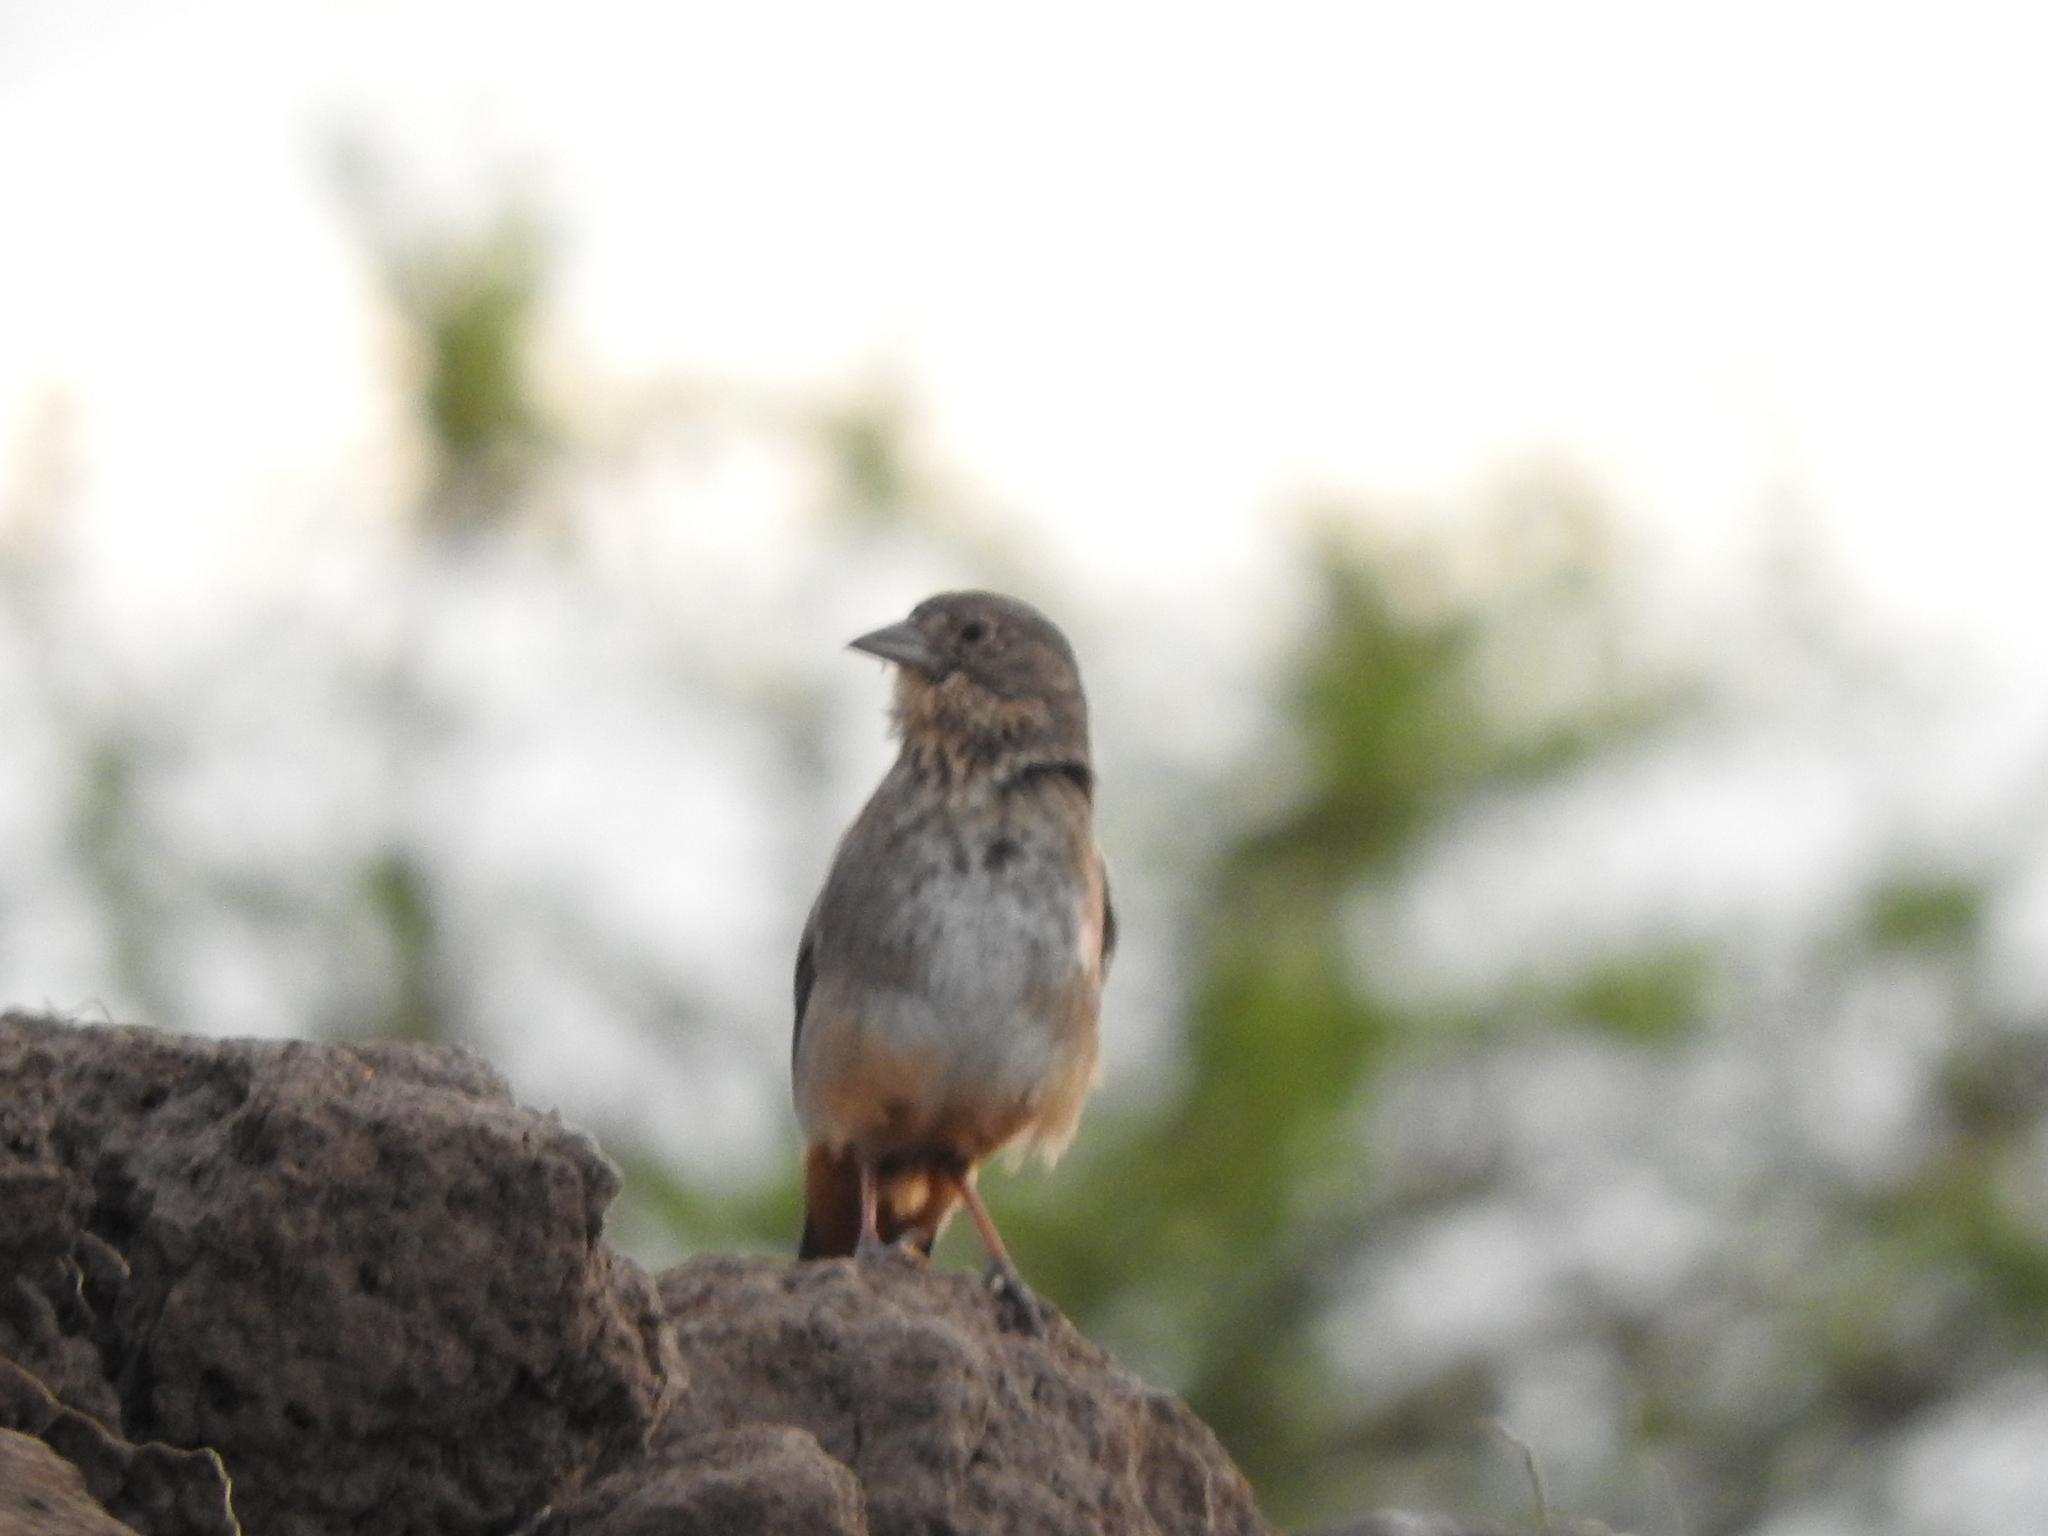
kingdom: Animalia
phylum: Chordata
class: Aves
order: Passeriformes
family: Passerellidae
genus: Melozone
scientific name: Melozone fusca
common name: Canyon towhee
